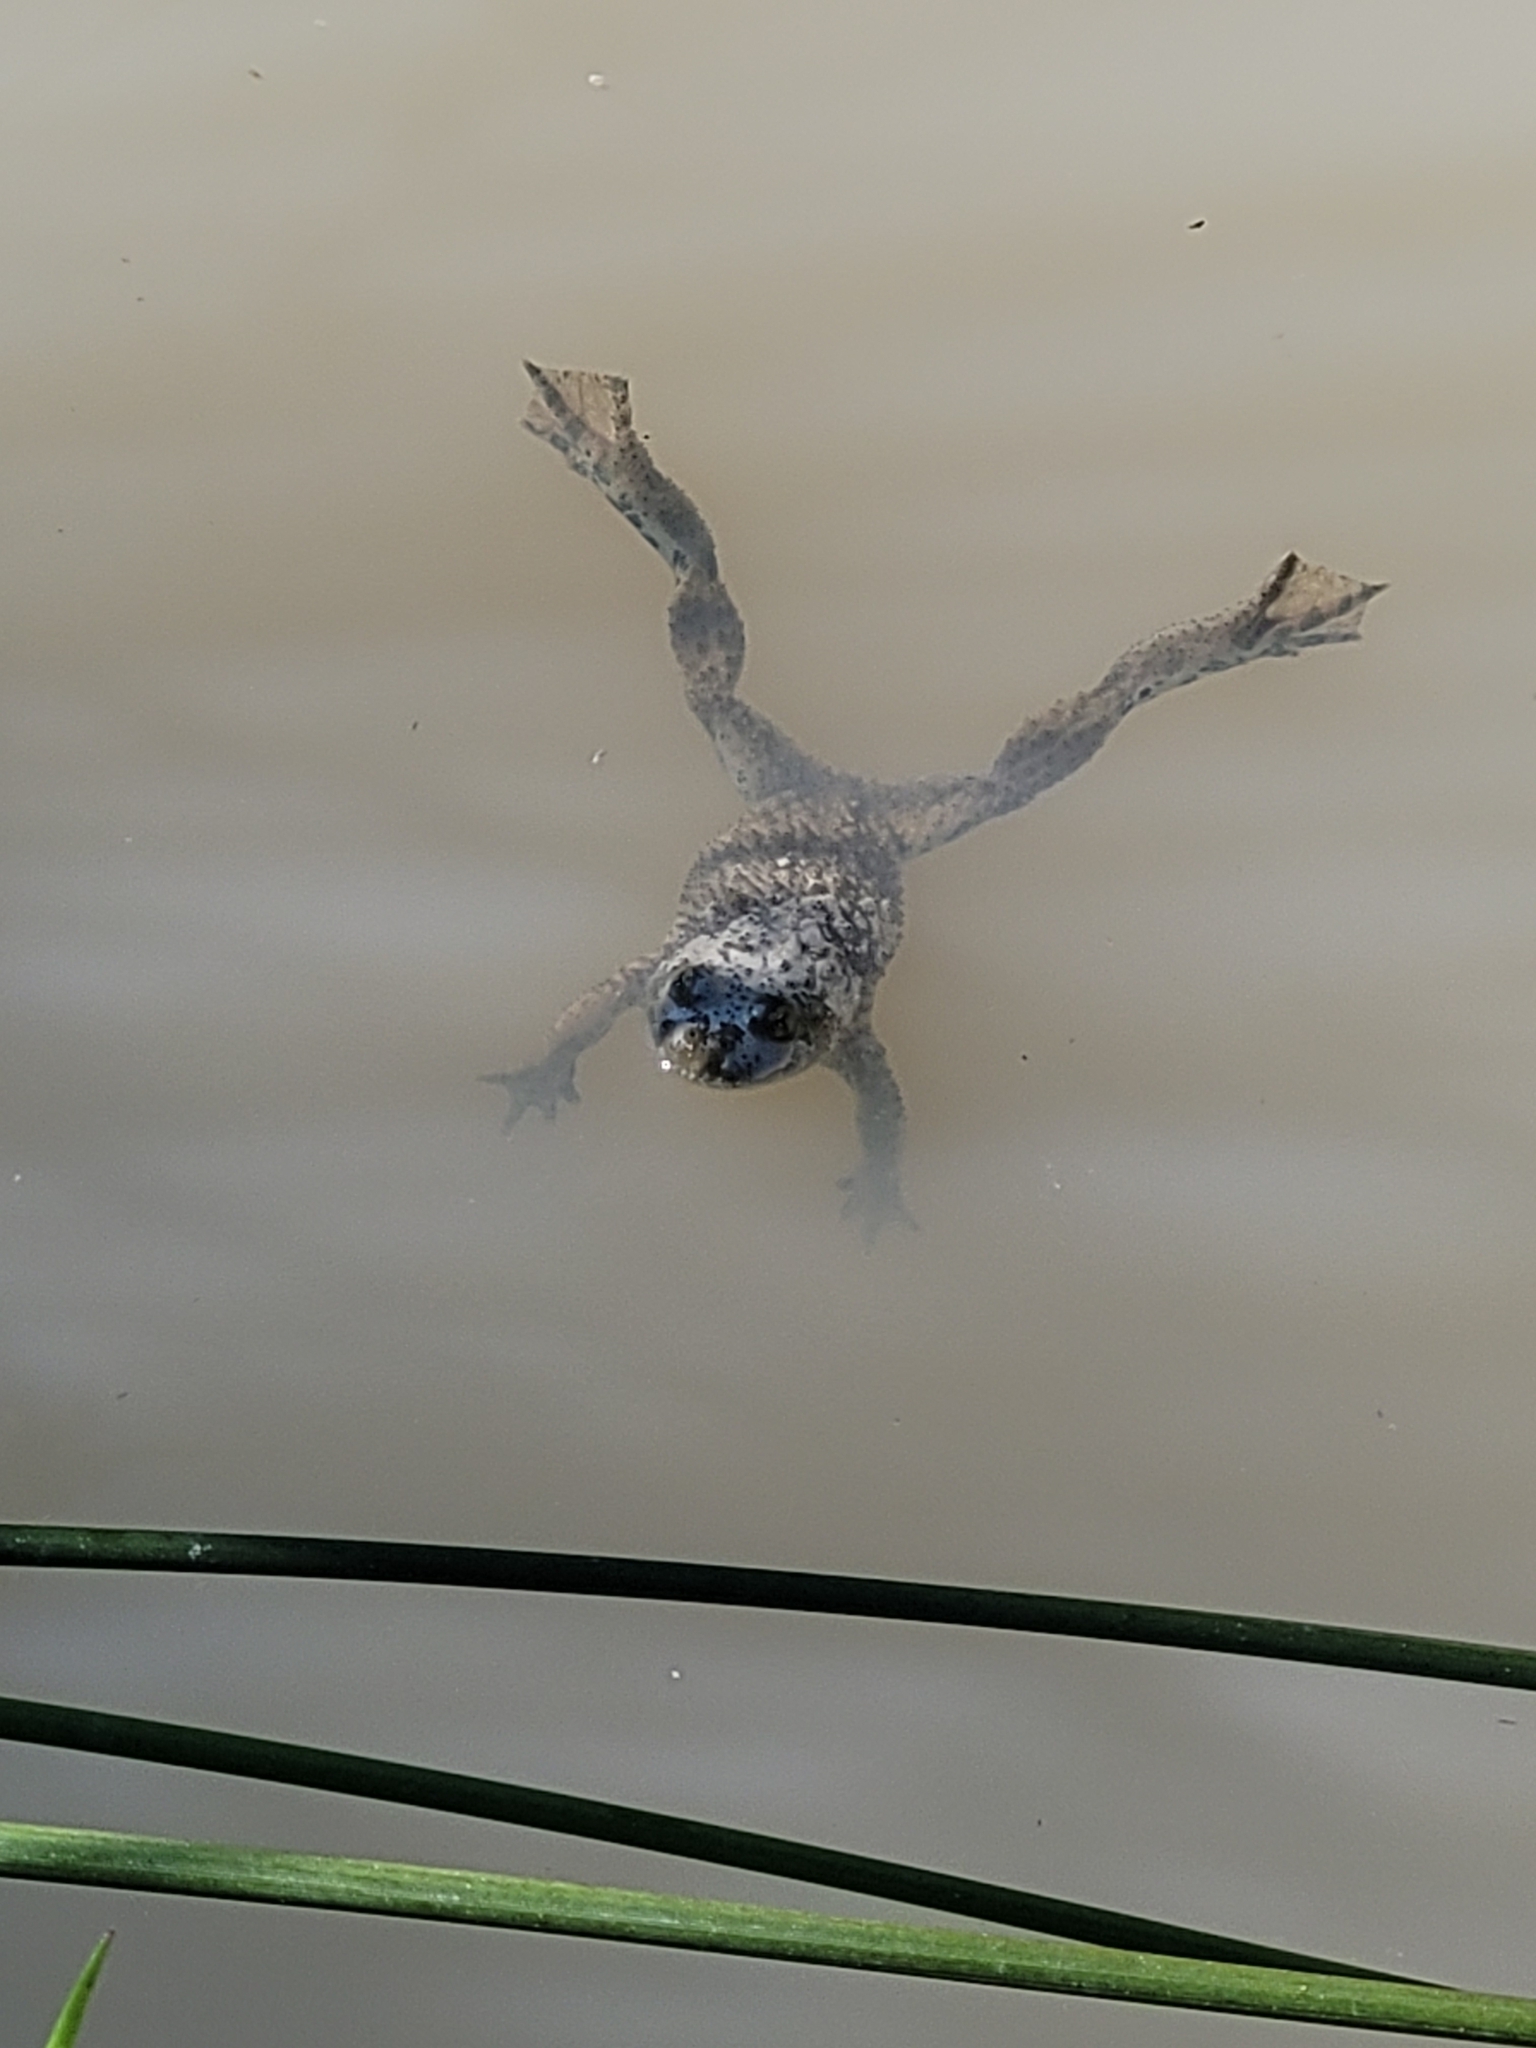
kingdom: Animalia
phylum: Chordata
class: Amphibia
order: Anura
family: Bombinatoridae
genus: Bombina
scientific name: Bombina variegata
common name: Yellow-bellied toad
